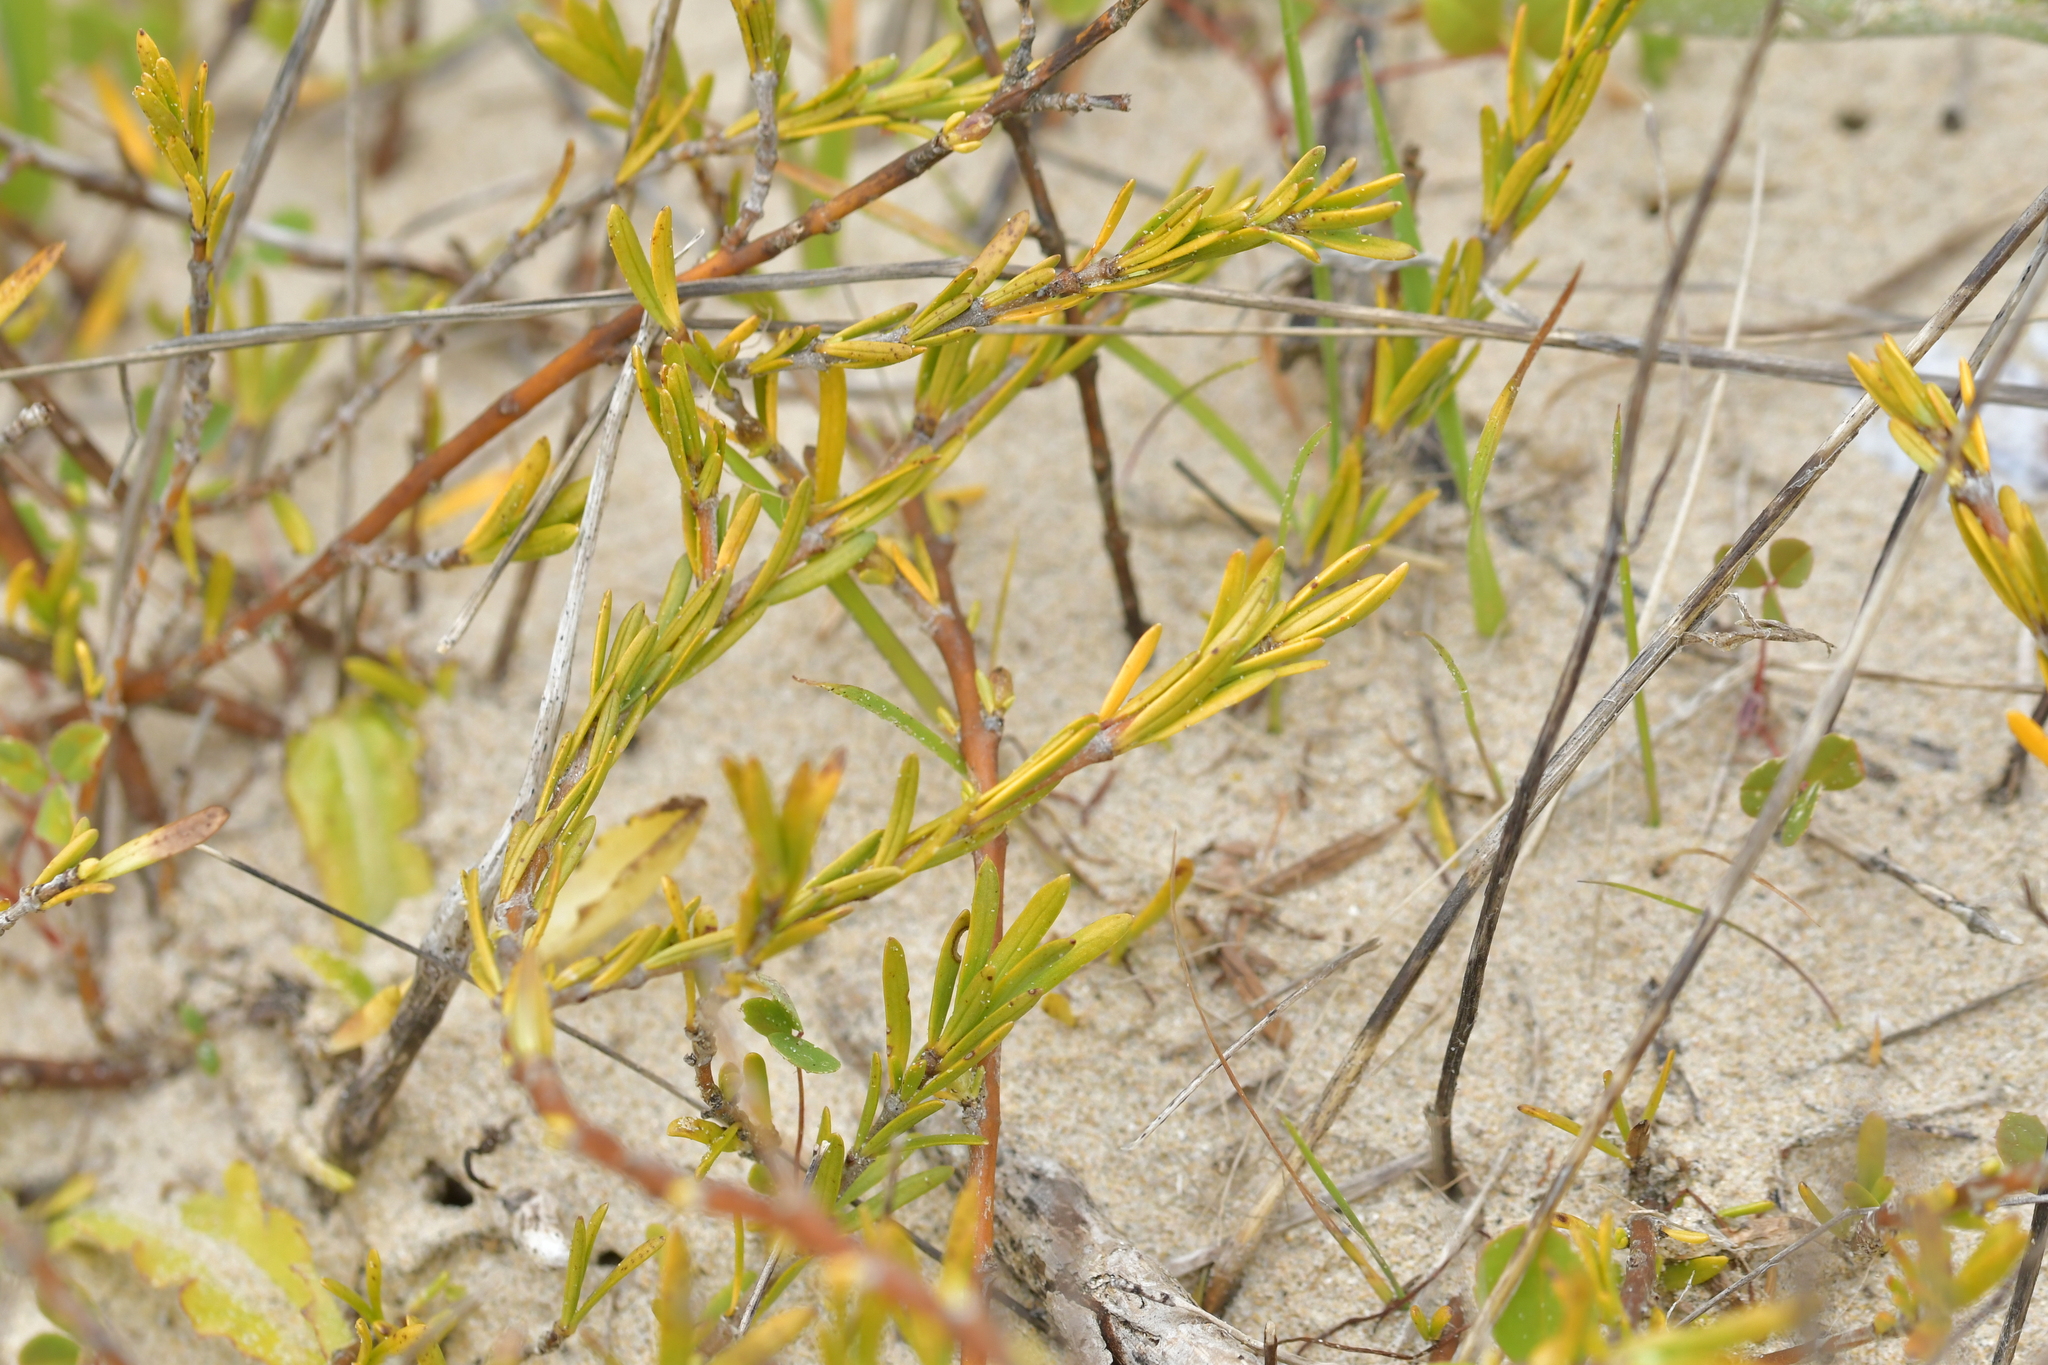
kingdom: Plantae
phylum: Tracheophyta
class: Magnoliopsida
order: Gentianales
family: Rubiaceae
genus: Coprosma
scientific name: Coprosma acerosa
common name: Sand coprosma
